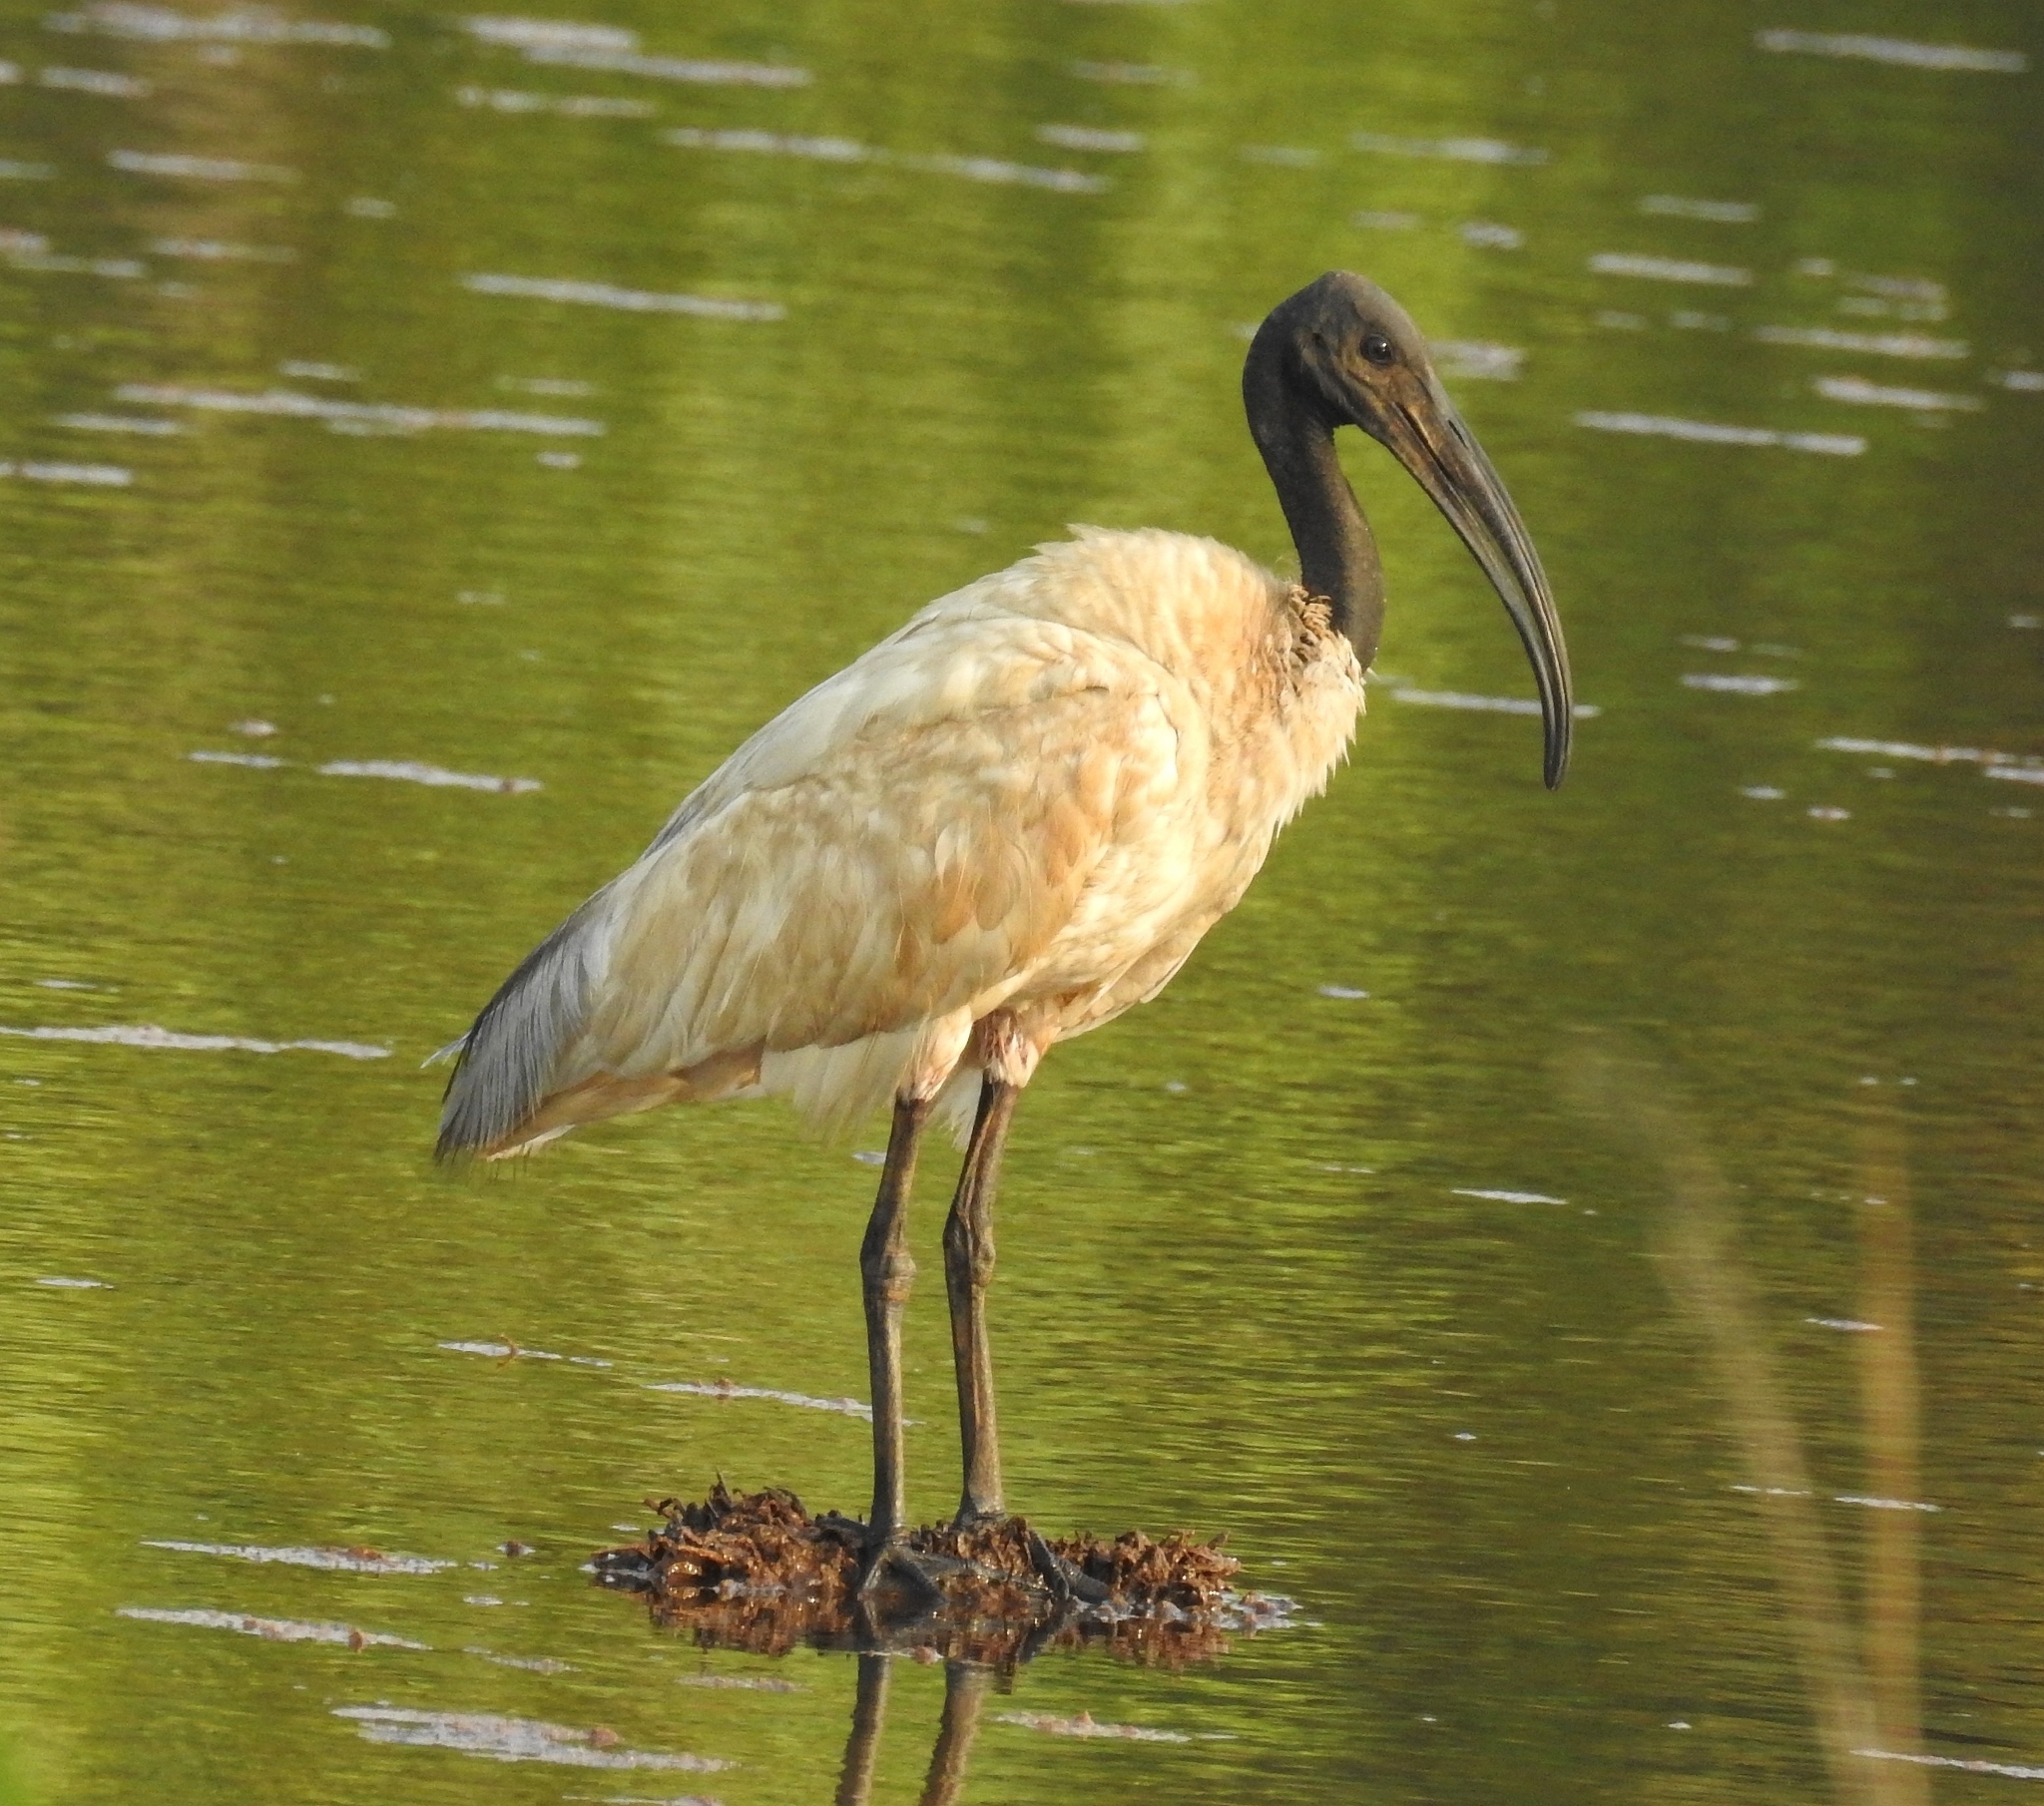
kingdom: Animalia
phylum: Chordata
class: Aves
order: Pelecaniformes
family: Threskiornithidae
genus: Threskiornis
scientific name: Threskiornis melanocephalus
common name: Black-headed ibis
